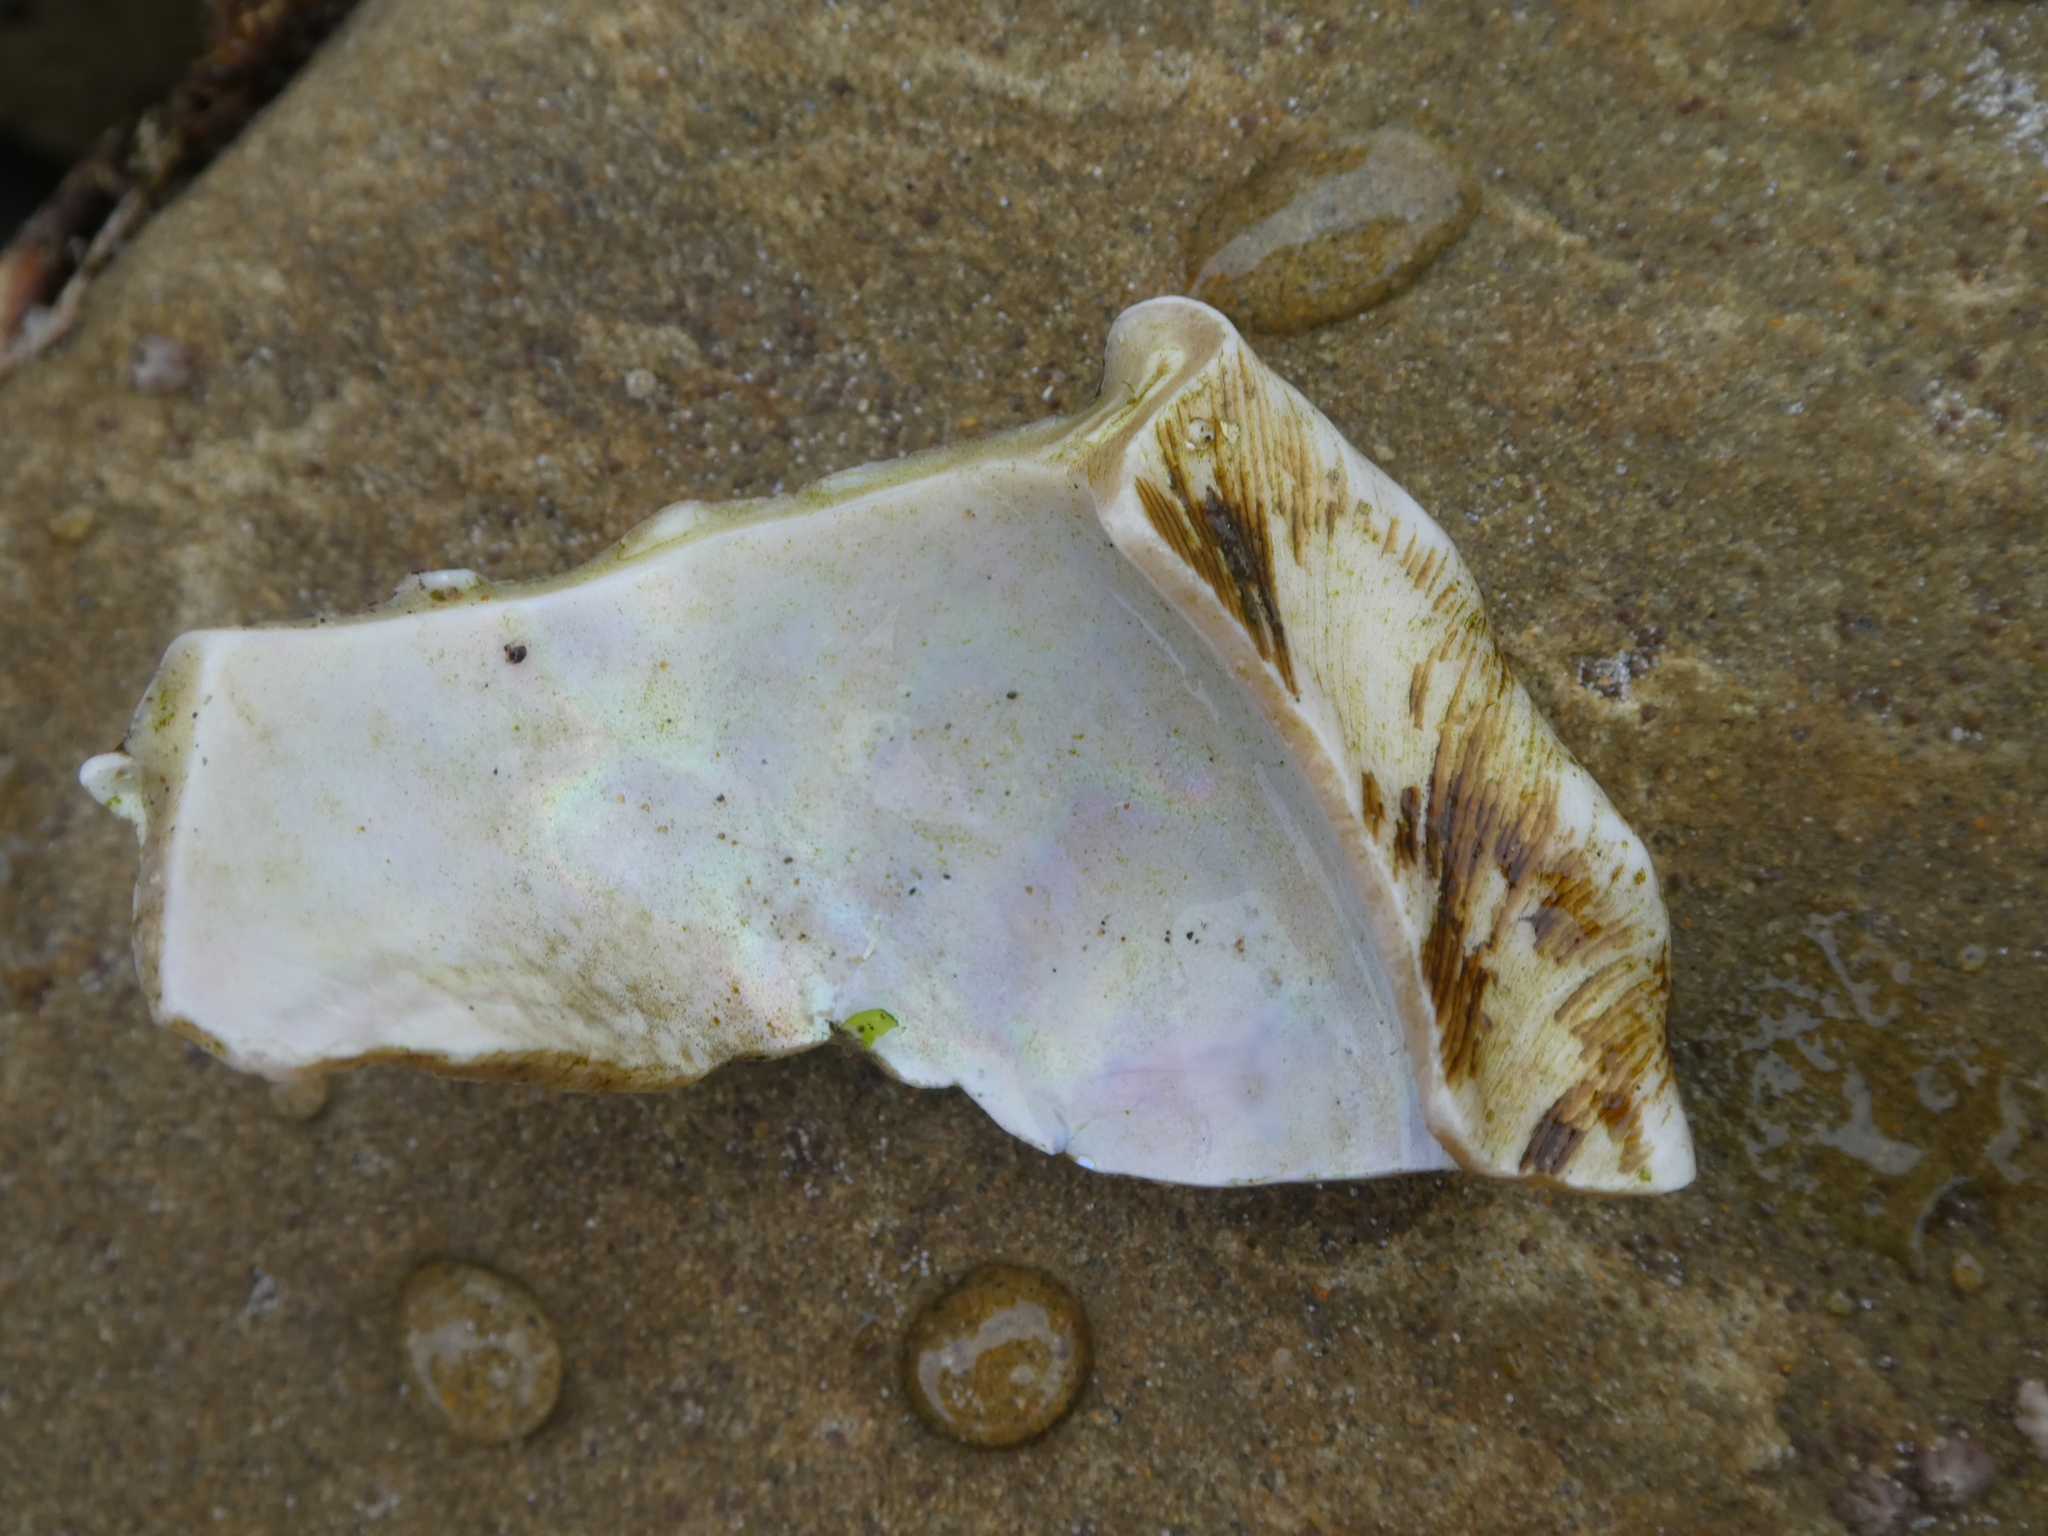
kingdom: Animalia
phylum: Mollusca
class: Gastropoda
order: Trochida
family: Turbinidae
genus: Megastraea
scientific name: Megastraea undosa
